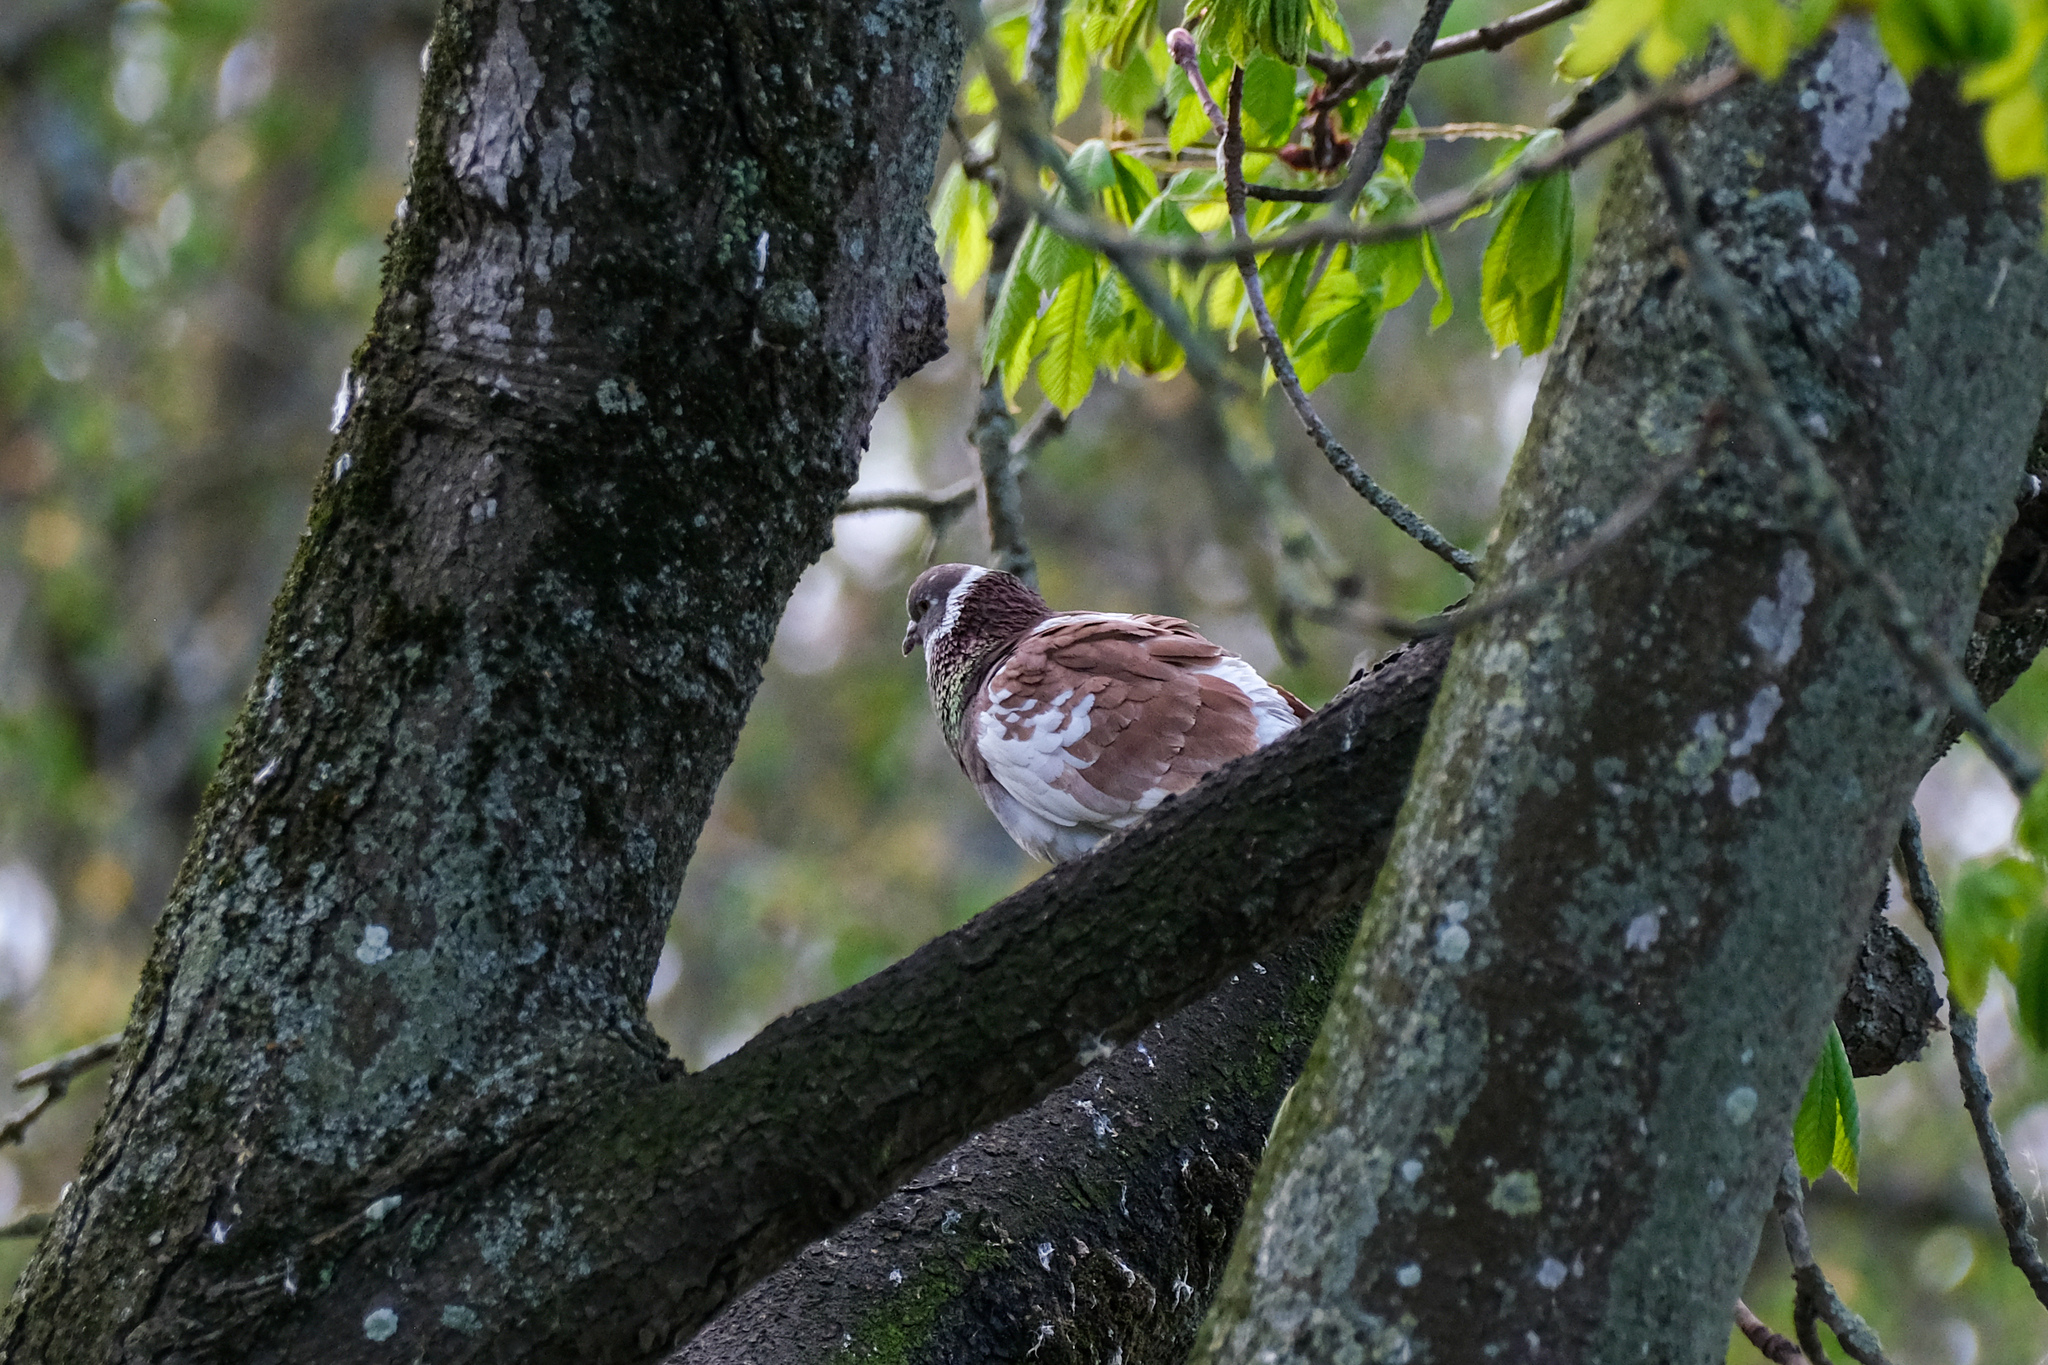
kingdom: Animalia
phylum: Chordata
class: Aves
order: Columbiformes
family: Columbidae
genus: Columba
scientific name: Columba livia
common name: Rock pigeon
